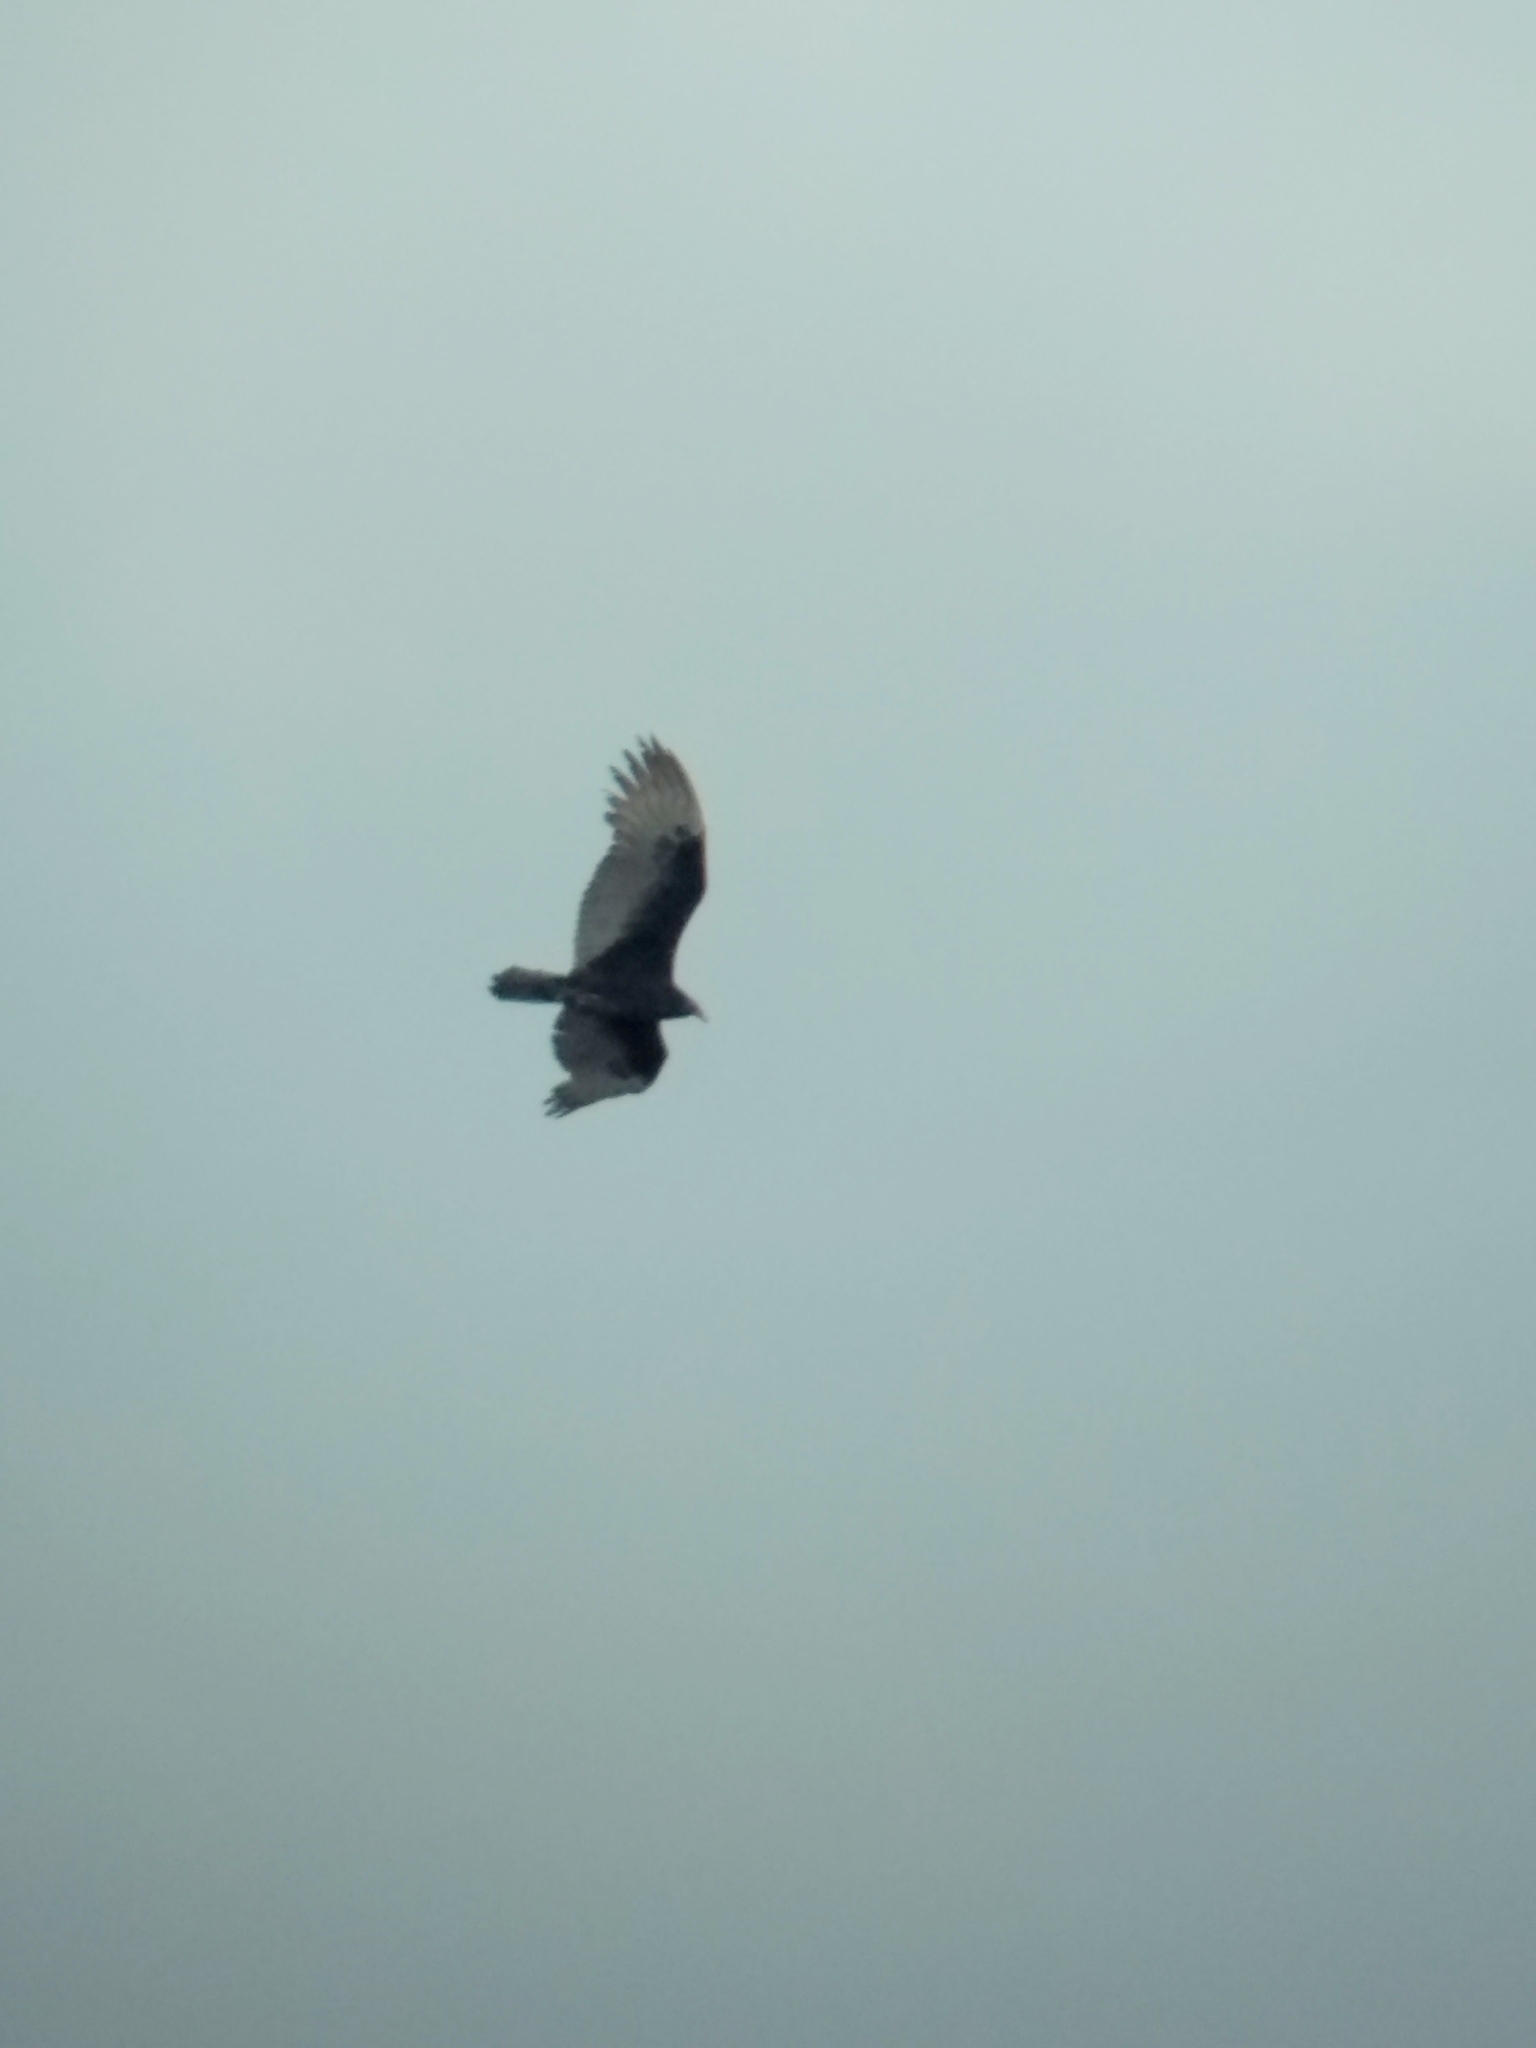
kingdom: Animalia
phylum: Chordata
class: Aves
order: Accipitriformes
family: Cathartidae
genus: Cathartes
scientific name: Cathartes aura
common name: Turkey vulture
